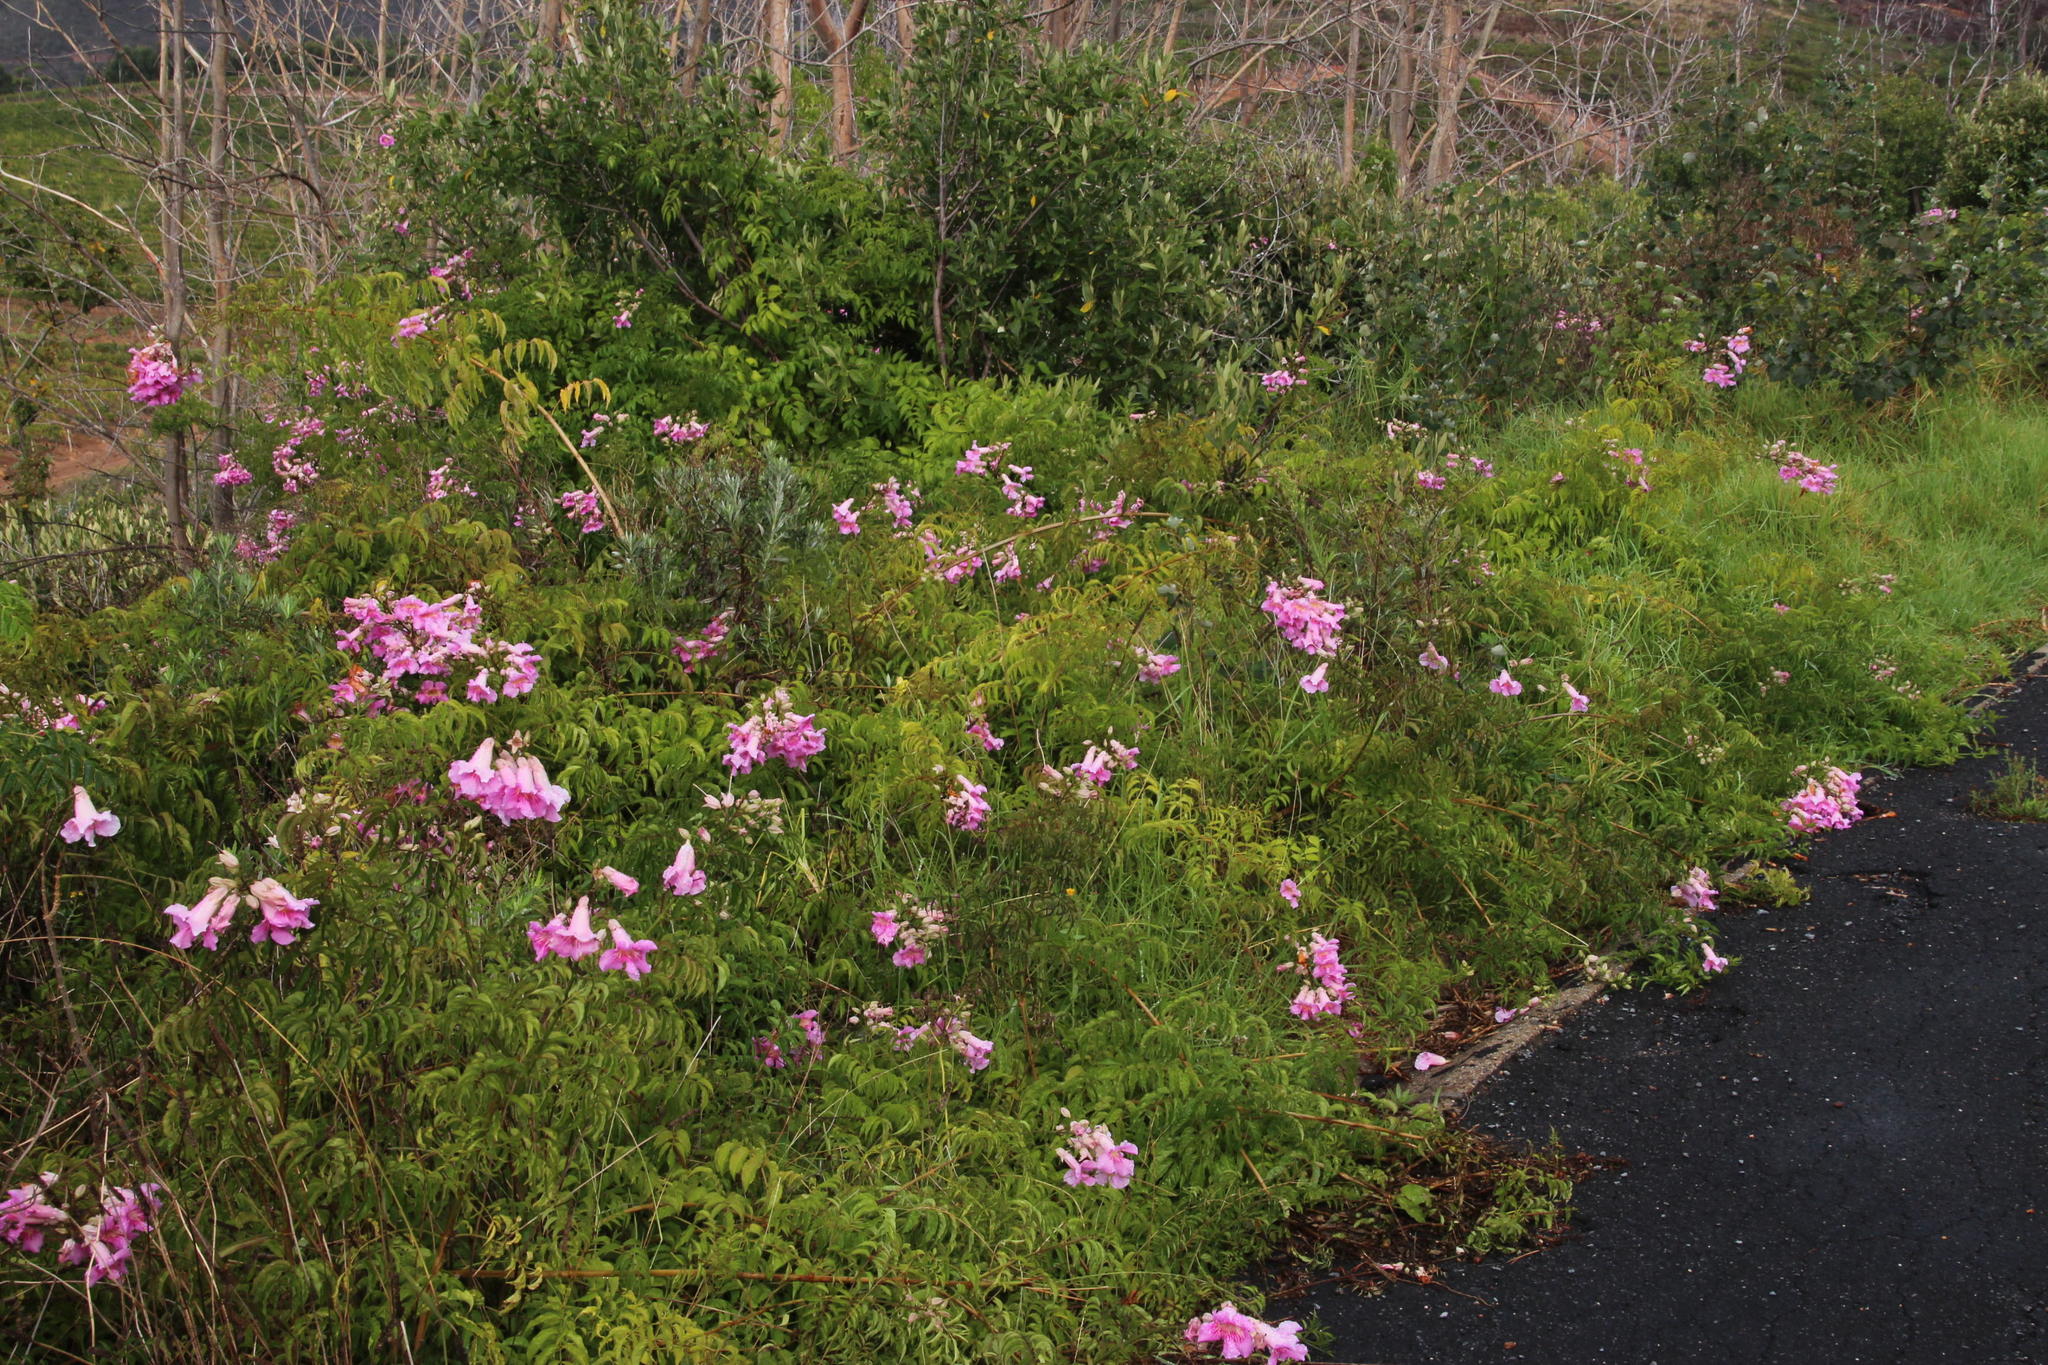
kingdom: Plantae
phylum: Tracheophyta
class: Magnoliopsida
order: Lamiales
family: Bignoniaceae
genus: Podranea
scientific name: Podranea brycei
